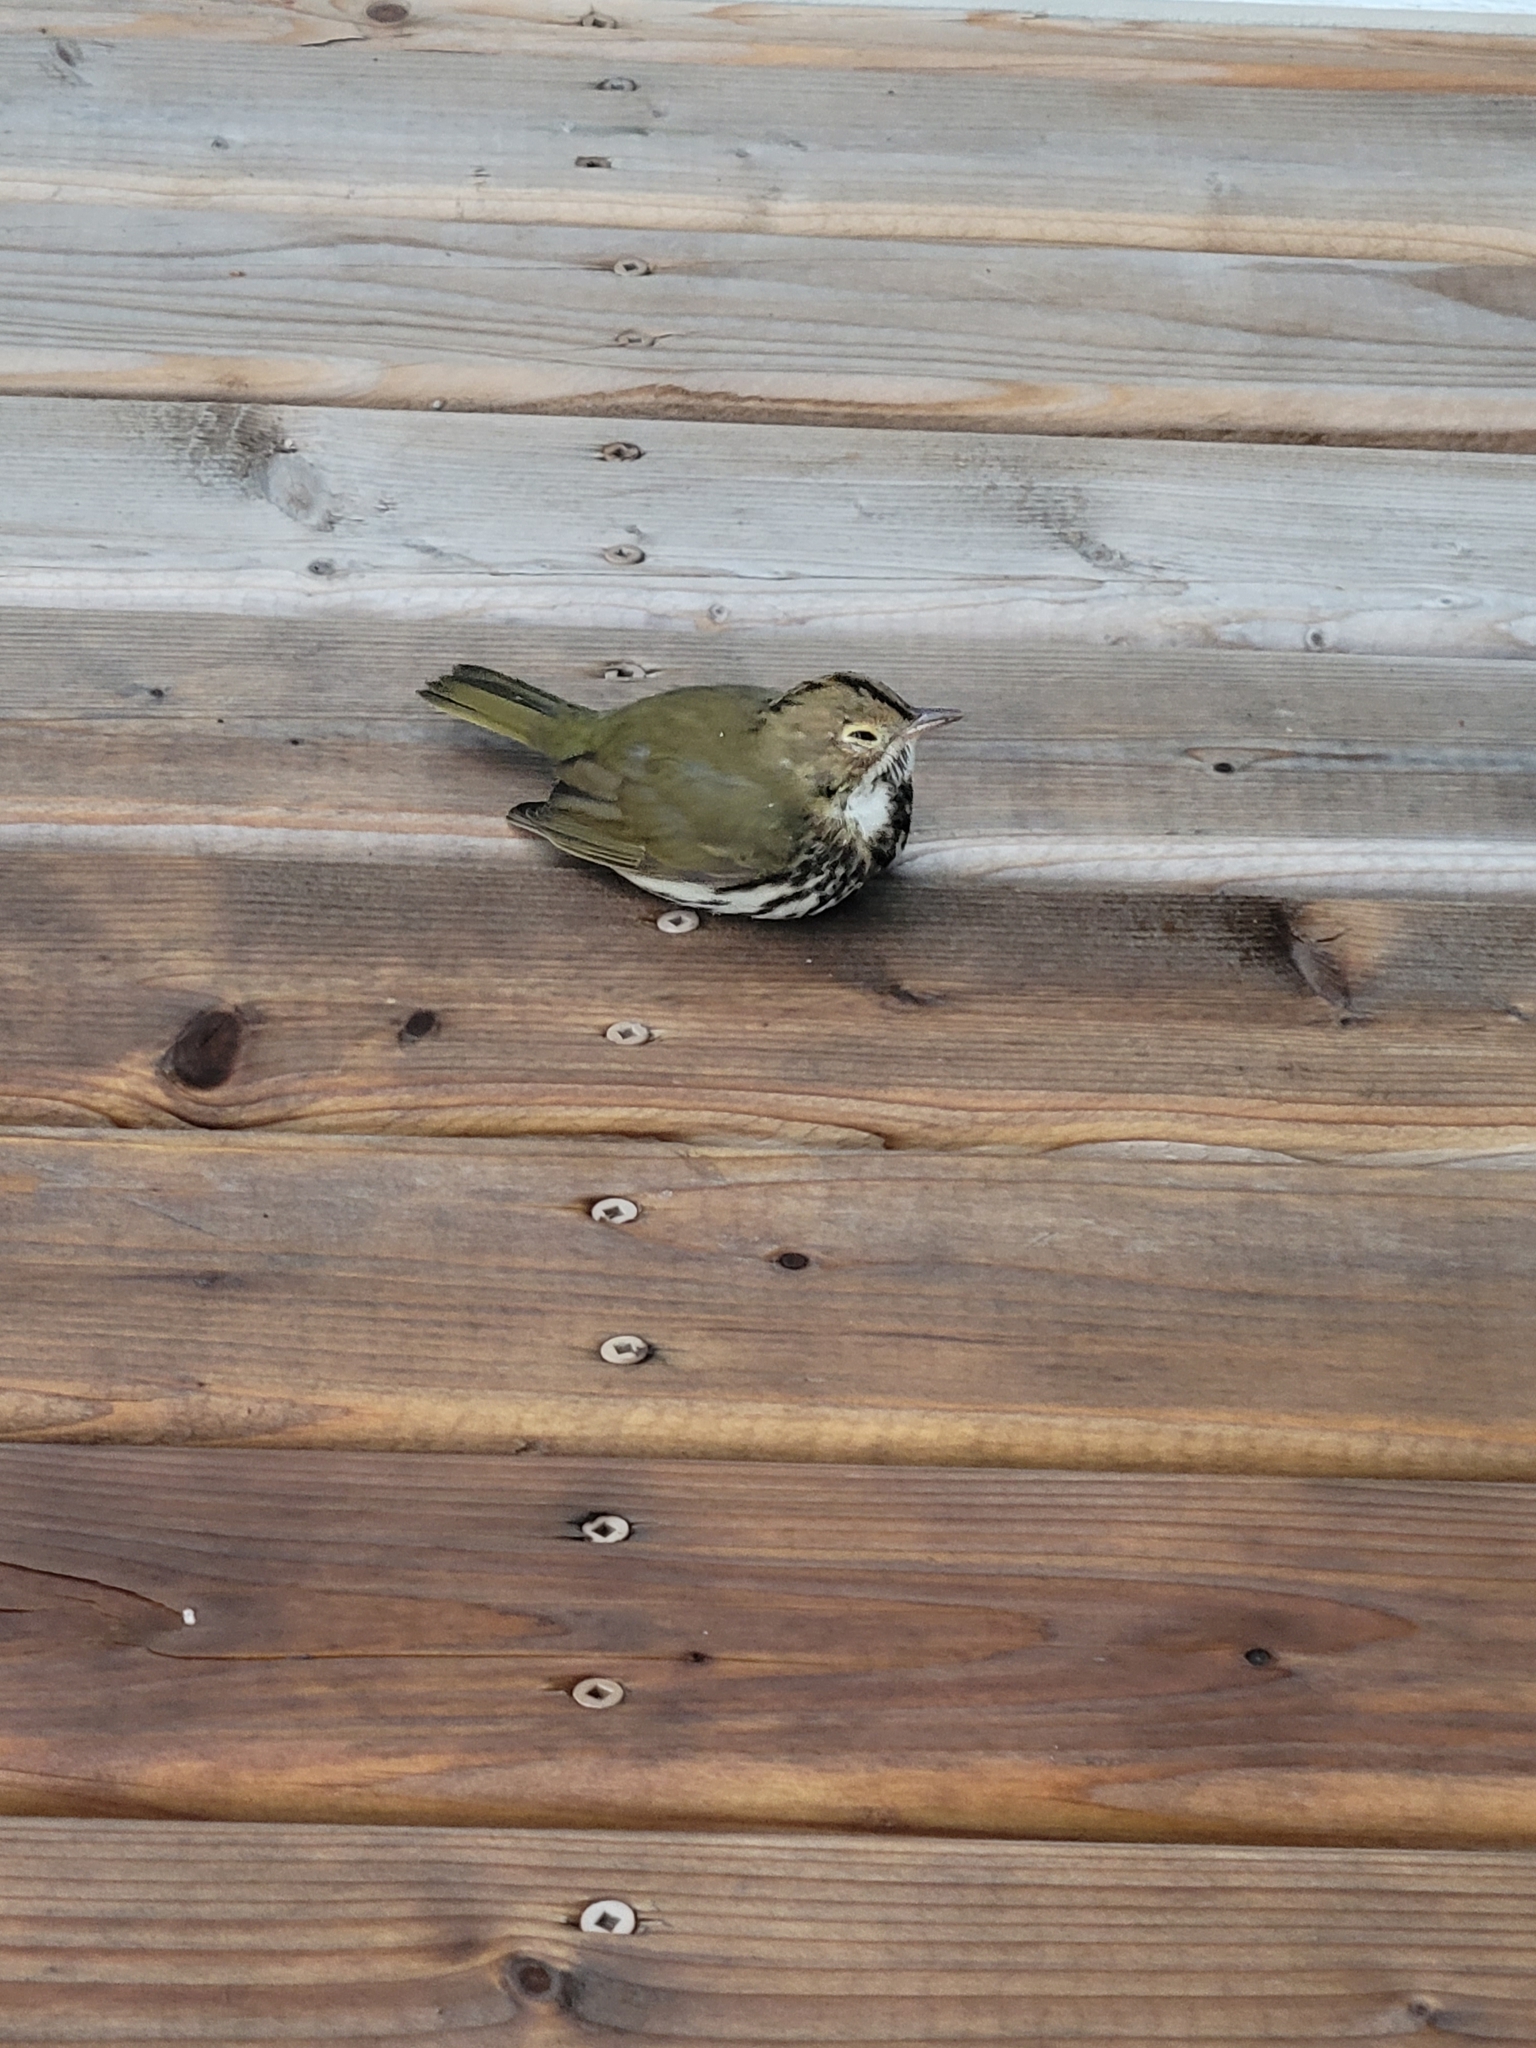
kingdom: Animalia
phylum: Chordata
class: Aves
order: Passeriformes
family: Parulidae
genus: Seiurus
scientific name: Seiurus aurocapilla
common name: Ovenbird
